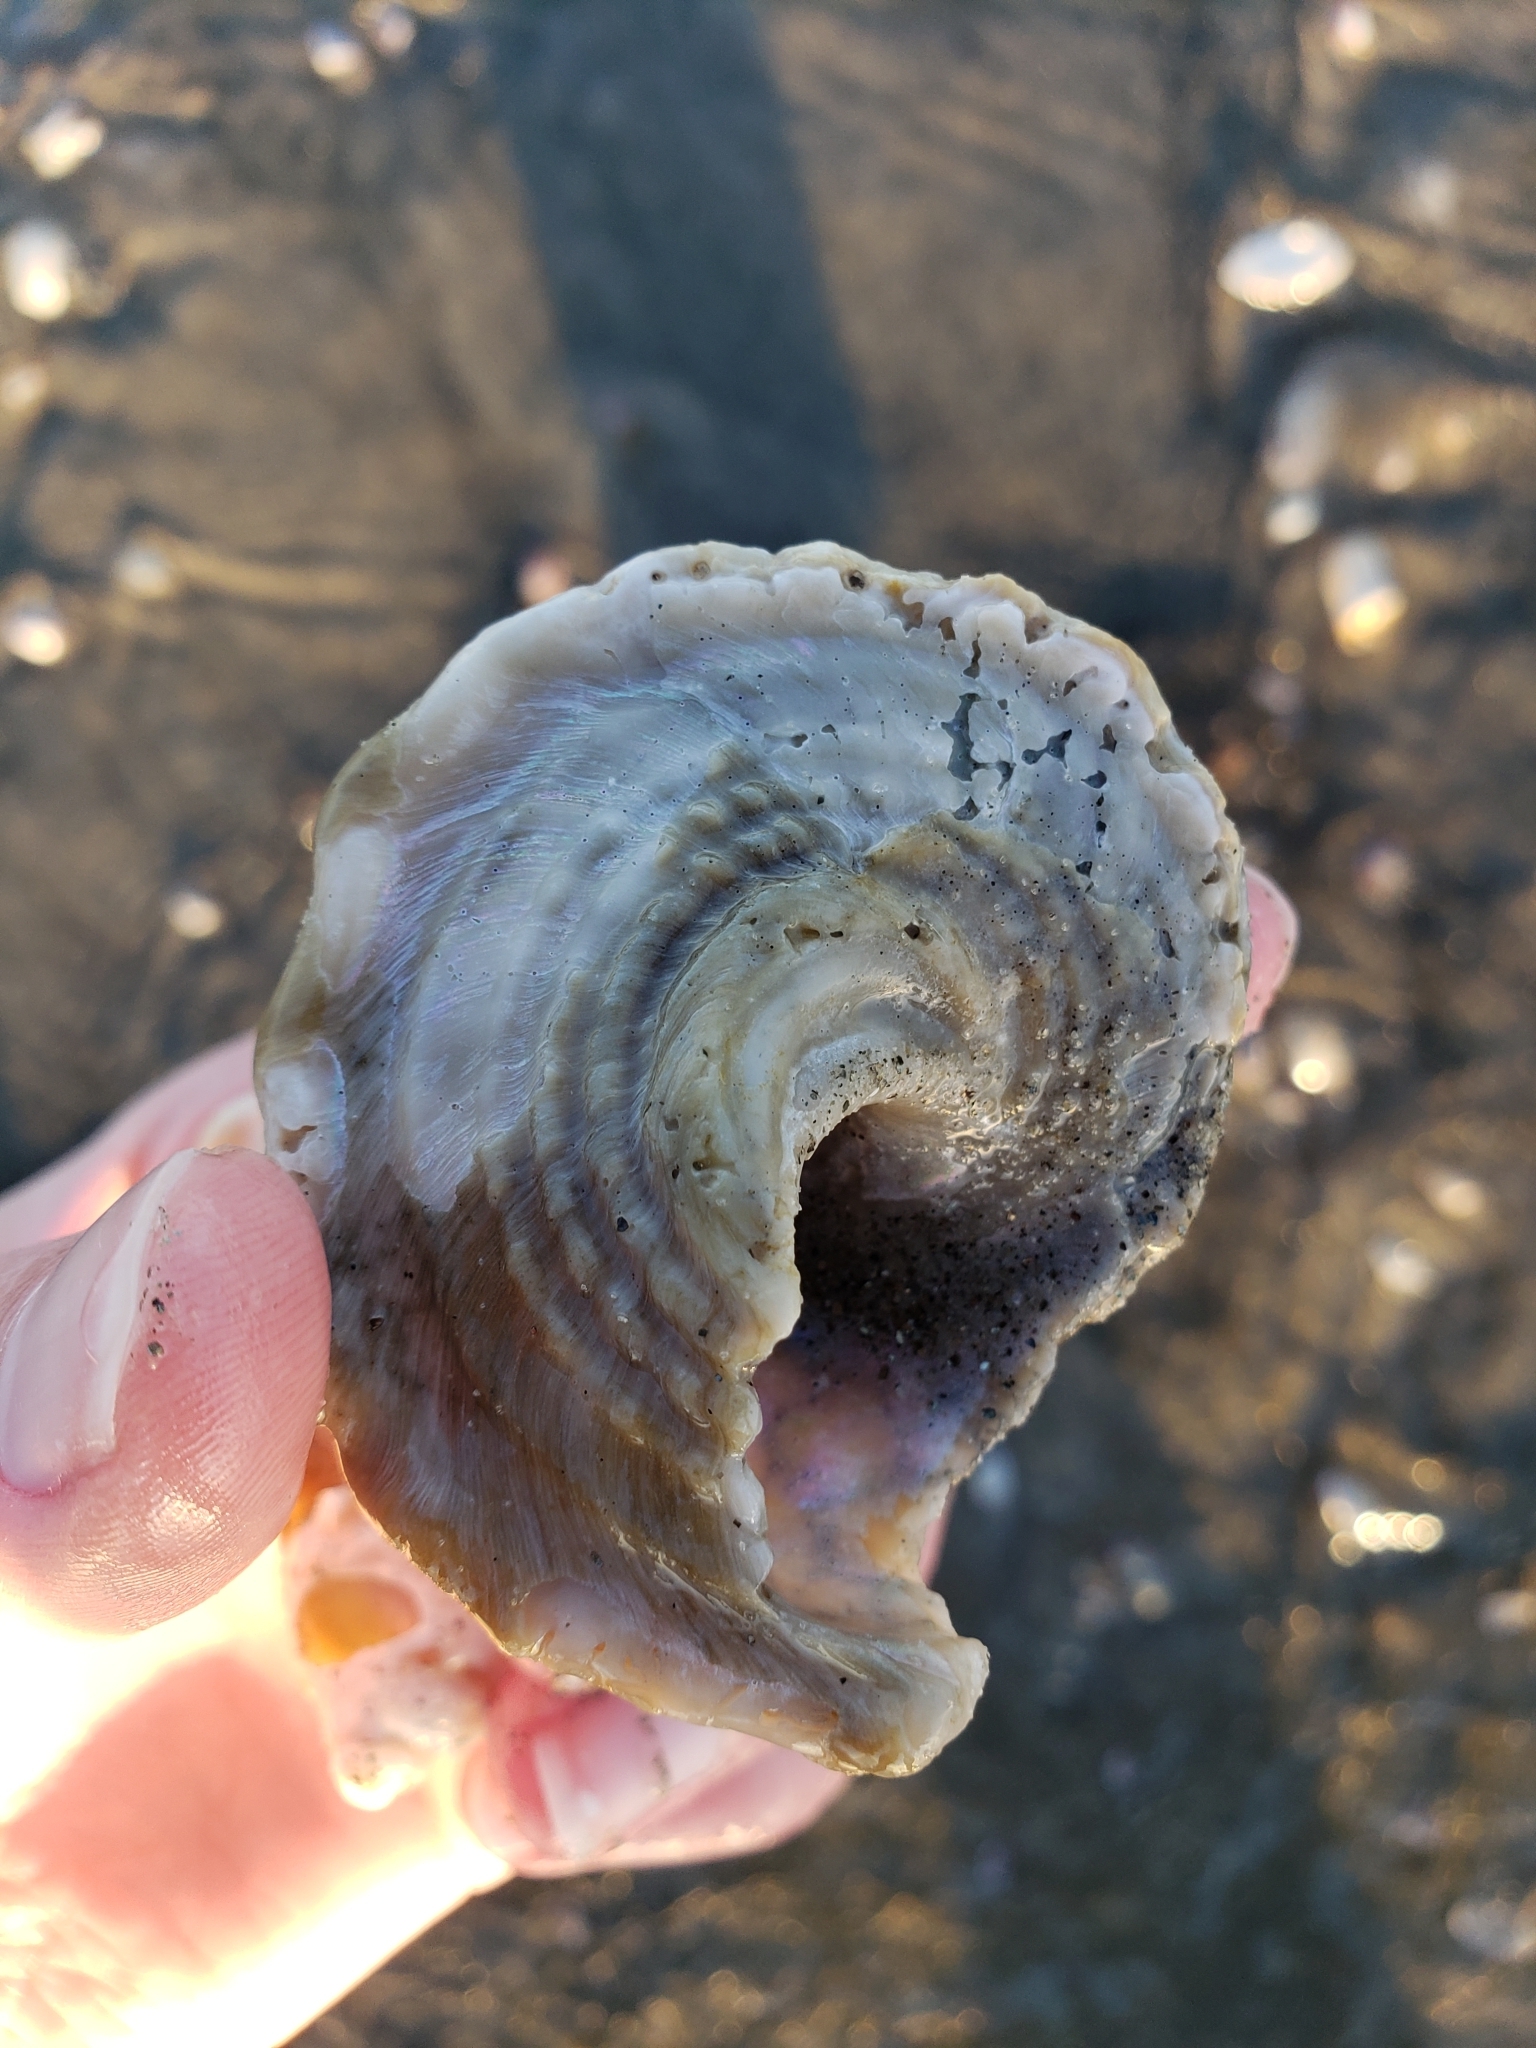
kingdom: Animalia
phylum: Mollusca
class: Gastropoda
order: Trochida
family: Turbinidae
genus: Megastraea
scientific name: Megastraea undosa
